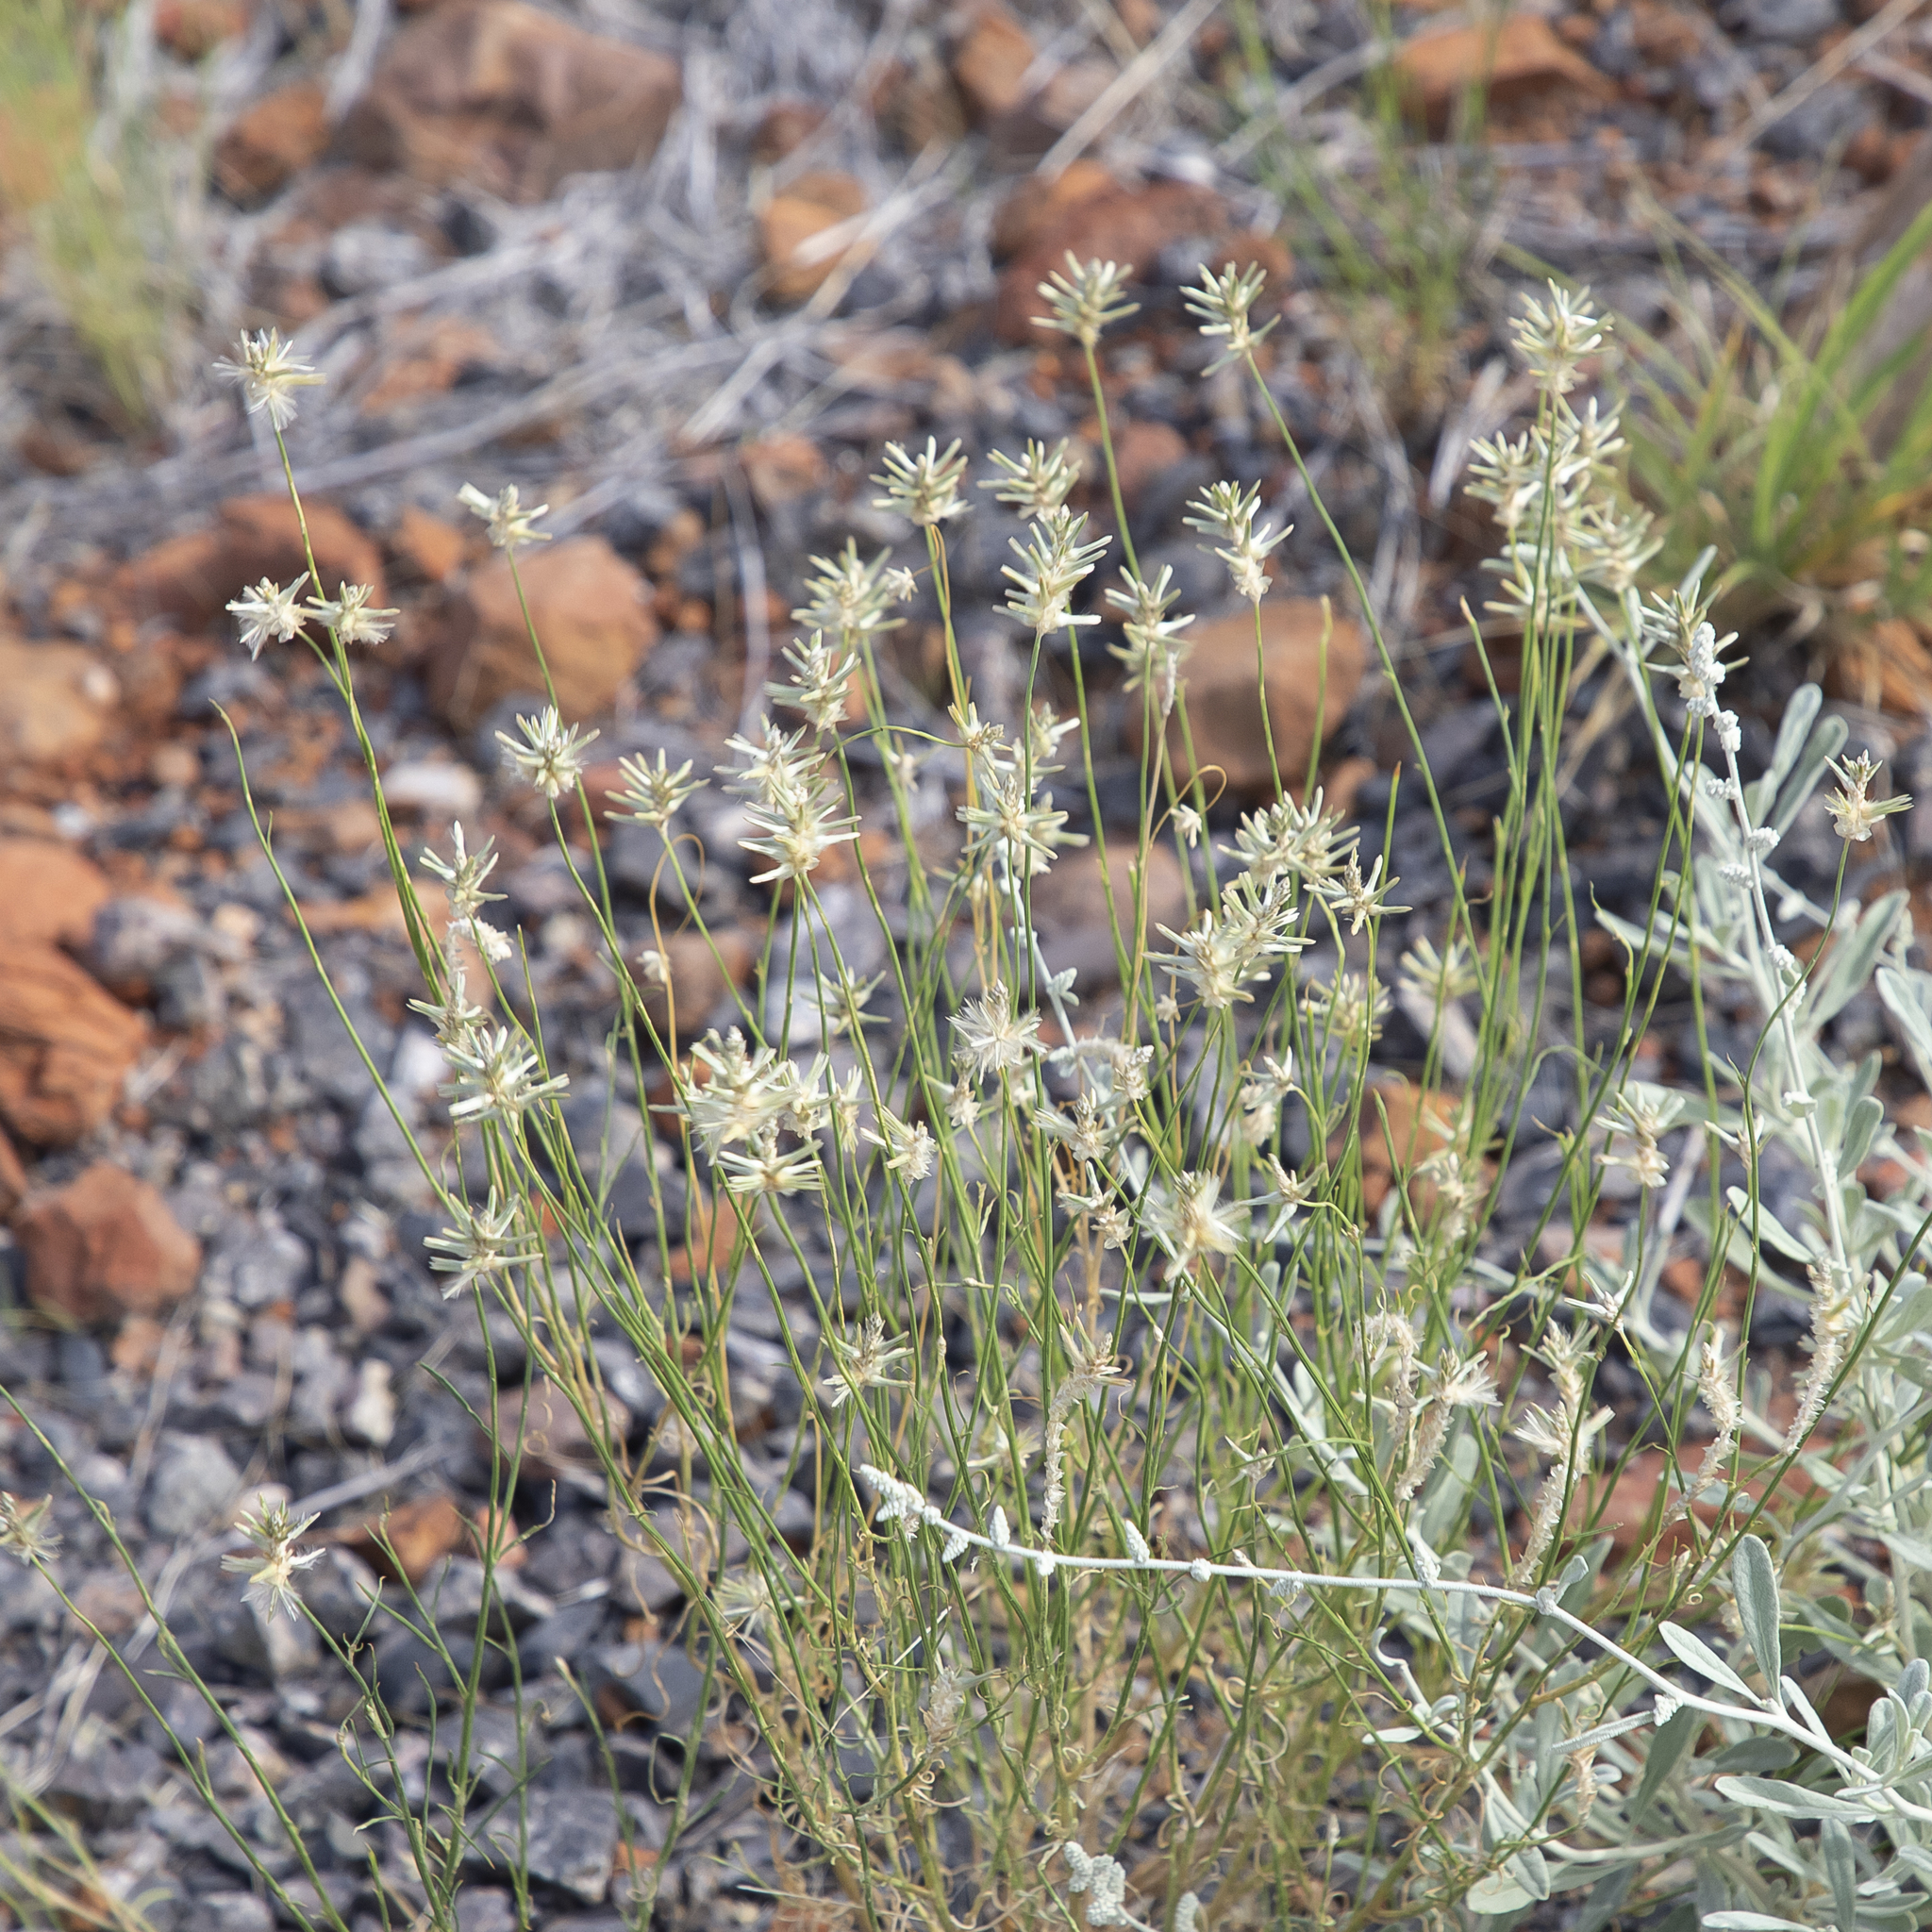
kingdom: Plantae
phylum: Tracheophyta
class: Magnoliopsida
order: Caryophyllales
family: Amaranthaceae
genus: Ptilotus
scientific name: Ptilotus fusiformis
